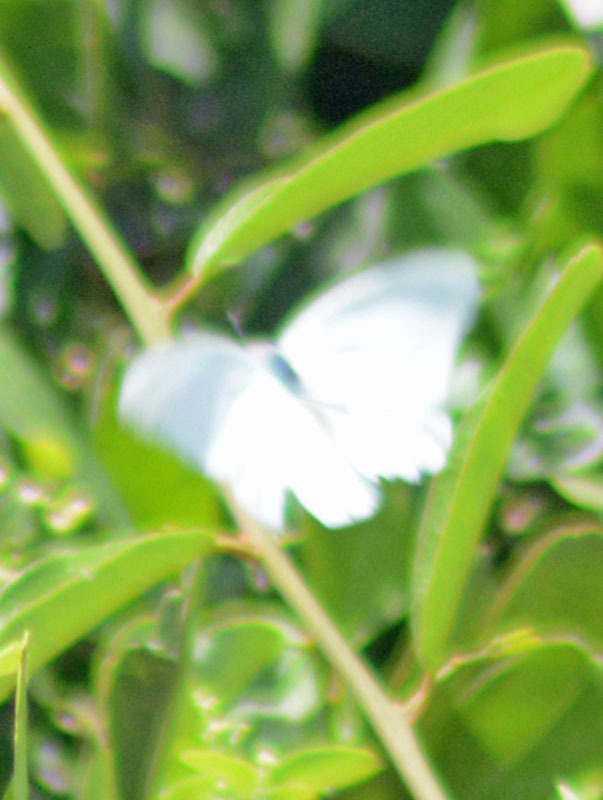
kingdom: Animalia
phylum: Arthropoda
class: Insecta
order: Lepidoptera
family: Pieridae
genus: Glutophrissa
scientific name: Glutophrissa drusilla
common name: Florida white
